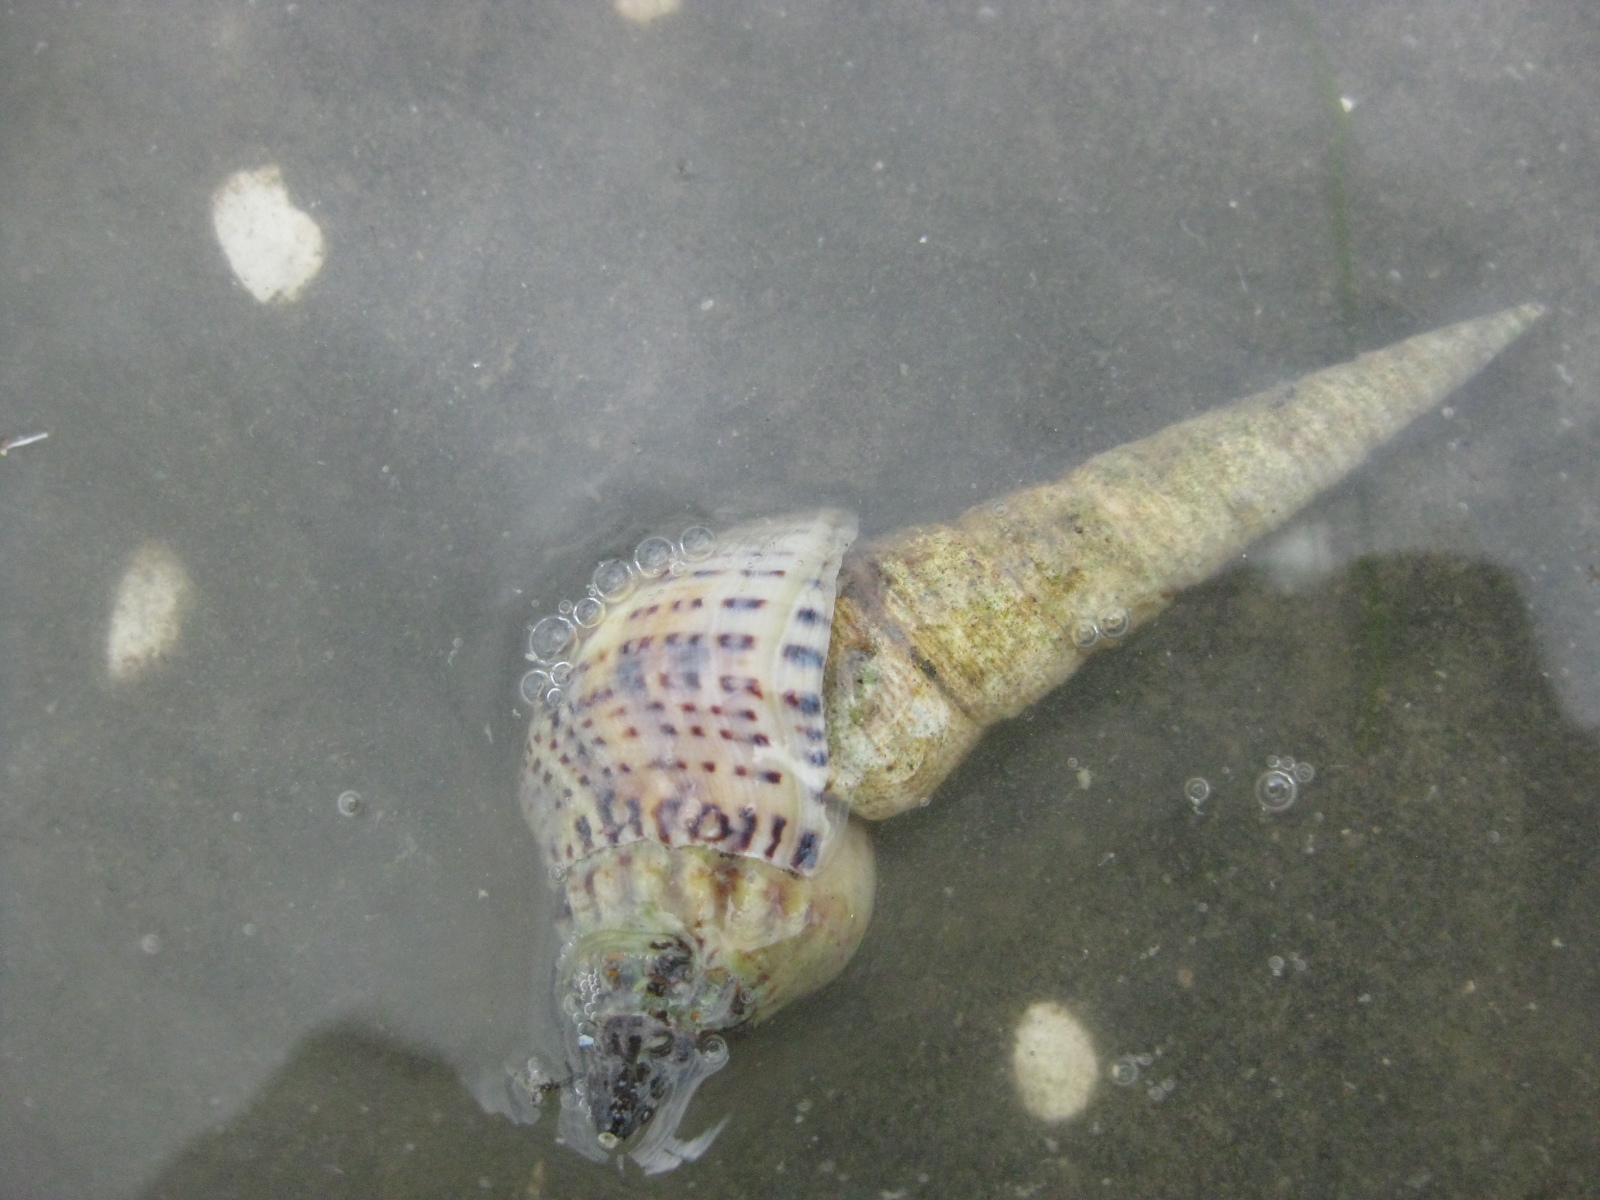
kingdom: Animalia
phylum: Mollusca
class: Gastropoda
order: Neogastropoda
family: Cominellidae
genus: Cominella
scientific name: Cominella adspersa
